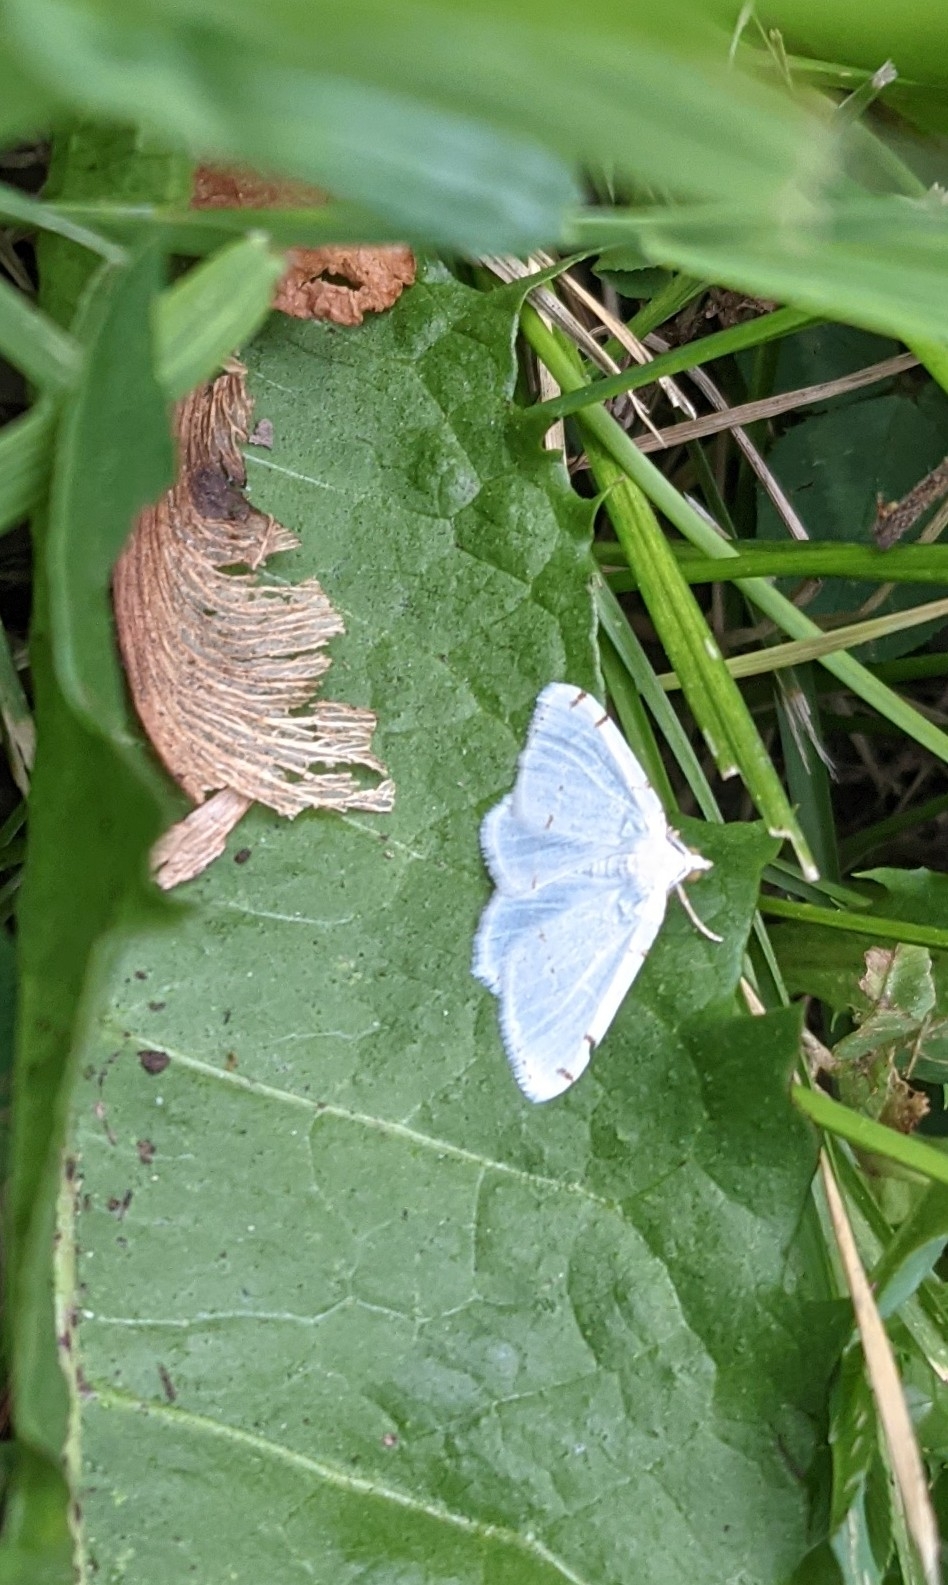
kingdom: Animalia
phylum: Arthropoda
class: Insecta
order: Lepidoptera
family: Geometridae
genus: Macaria
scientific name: Macaria pustularia
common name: Lesser maple spanworm moth
